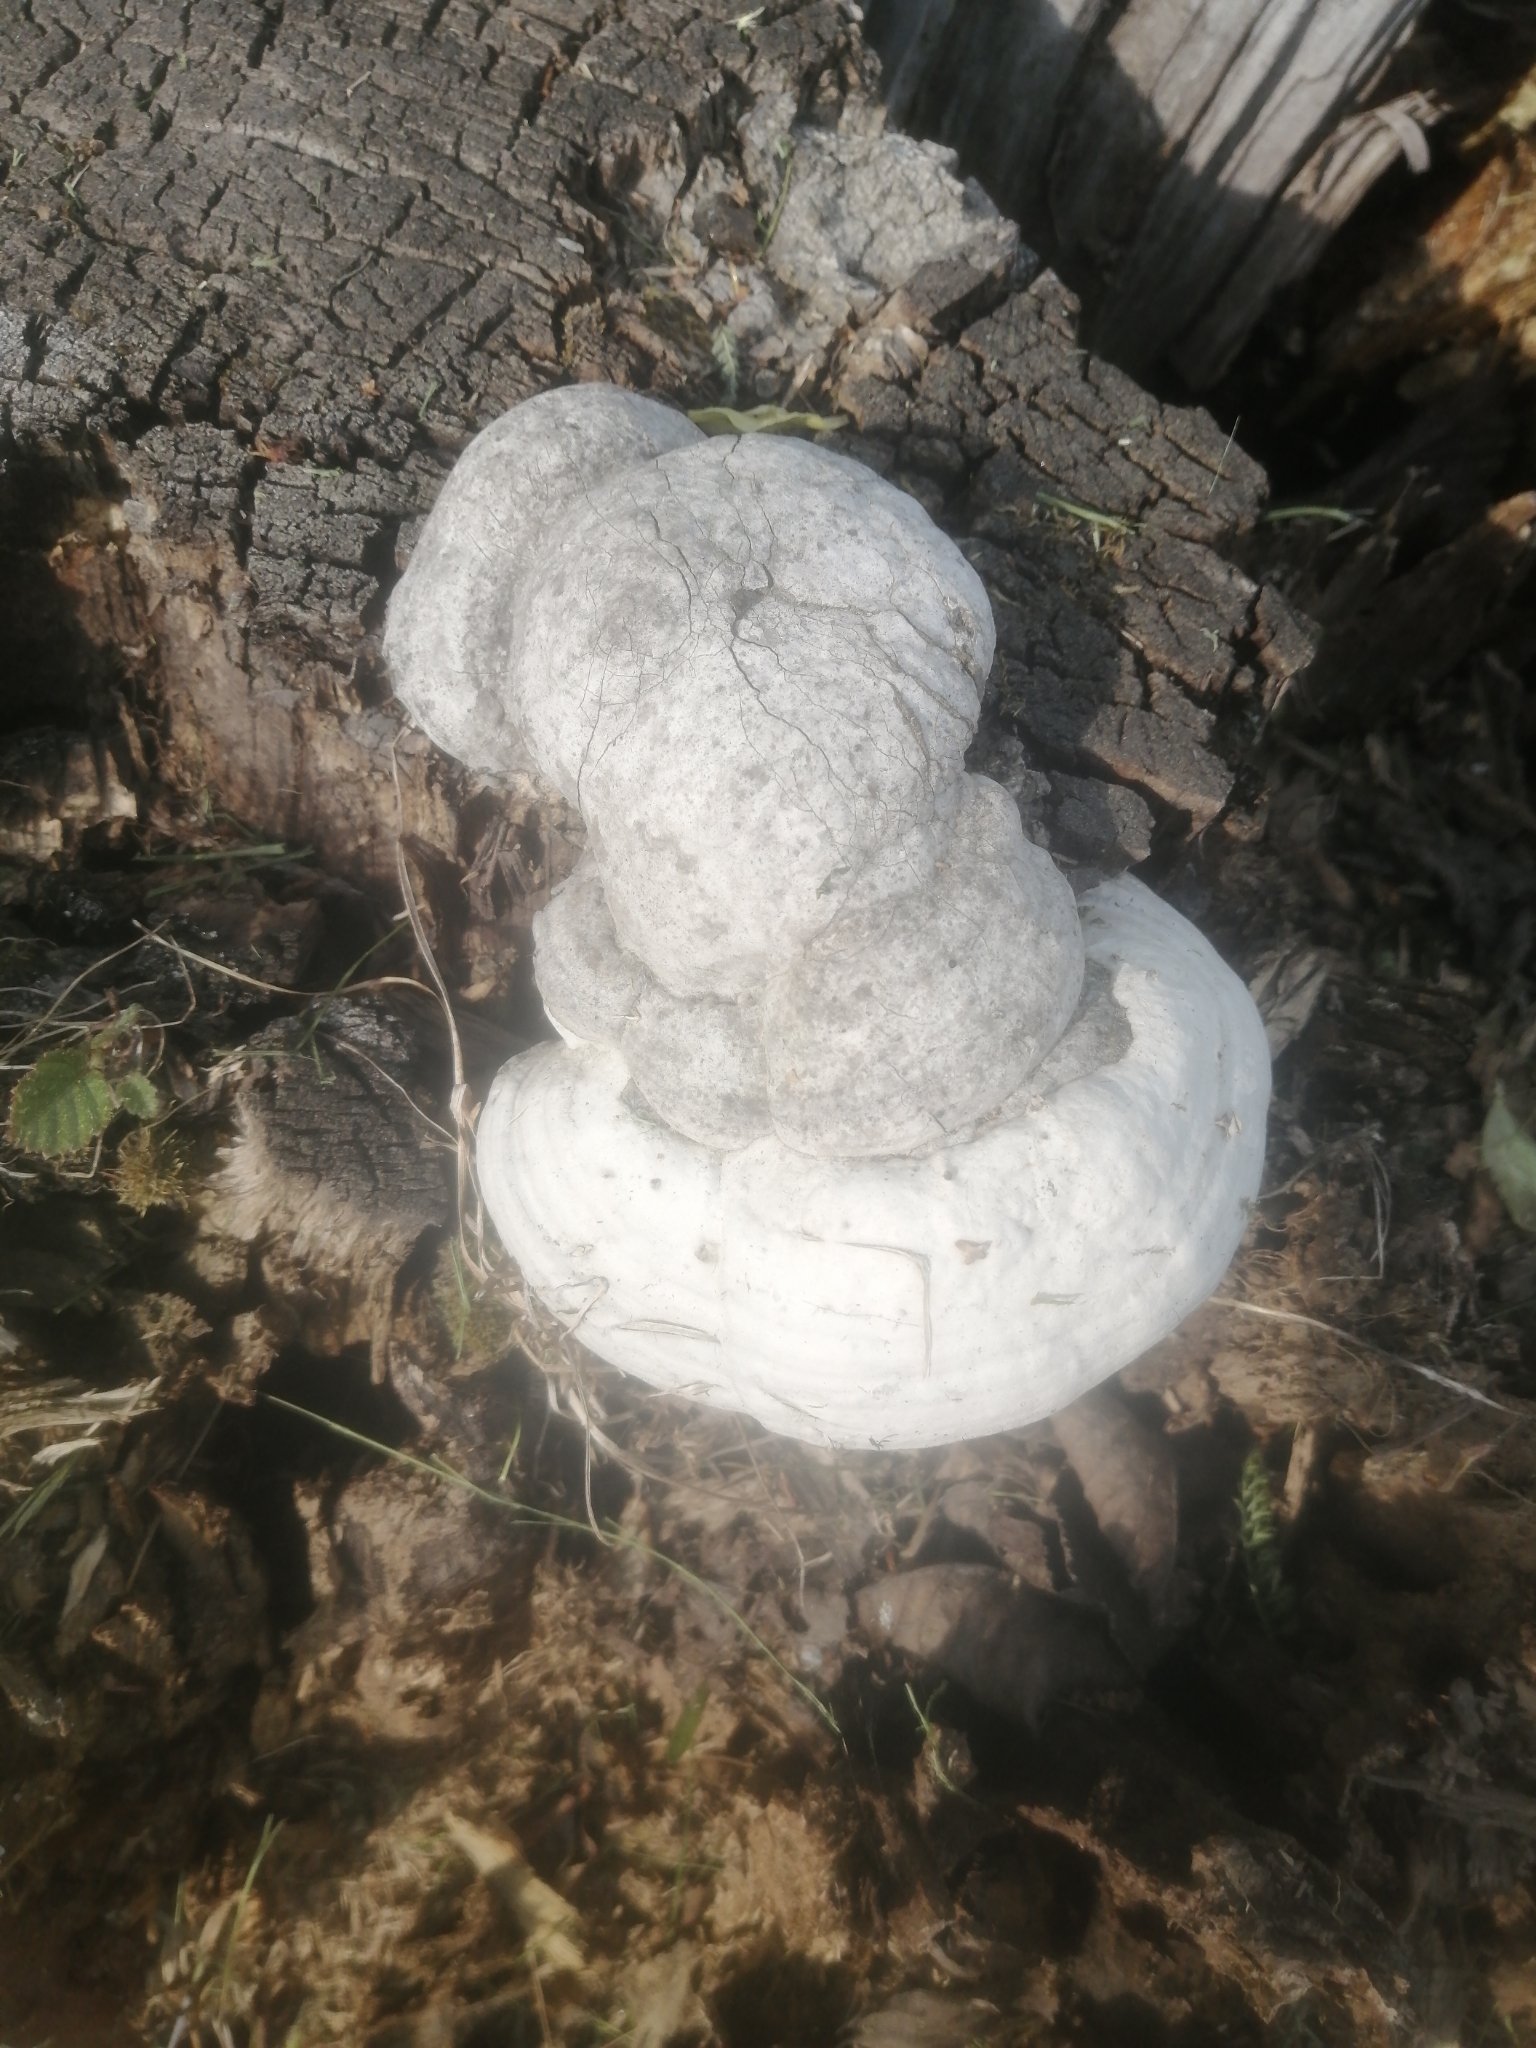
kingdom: Fungi
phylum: Basidiomycota
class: Agaricomycetes
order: Polyporales
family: Polyporaceae
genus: Fomes
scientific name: Fomes fomentarius
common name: Hoof fungus
